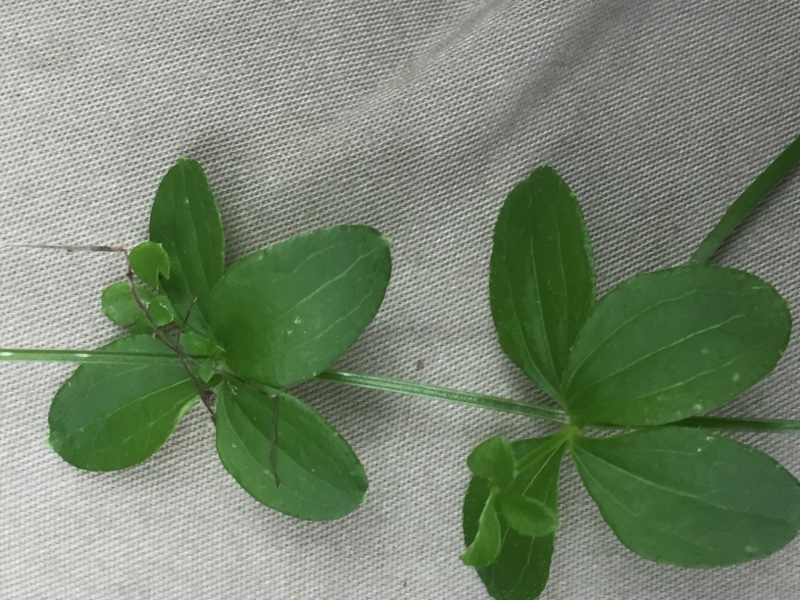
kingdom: Plantae
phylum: Tracheophyta
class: Magnoliopsida
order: Gentianales
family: Rubiaceae
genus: Asperula
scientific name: Asperula taurina
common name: Pink woodruff
